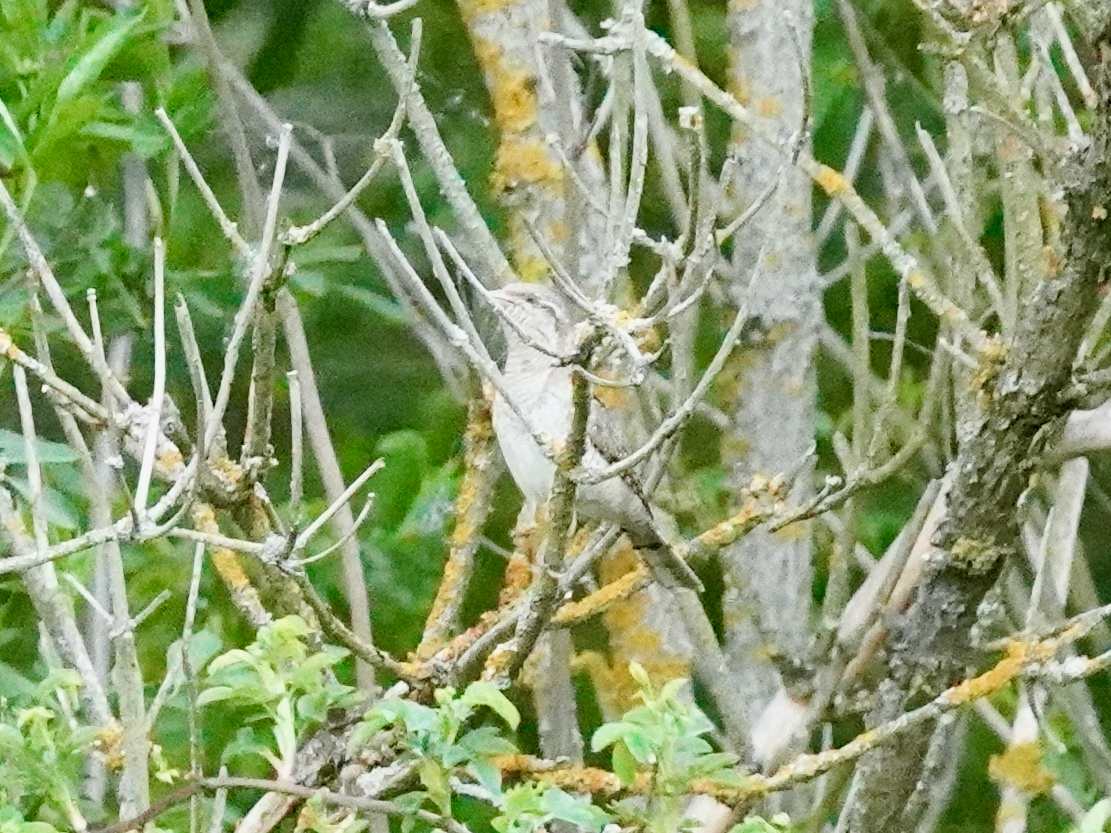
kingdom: Animalia
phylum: Chordata
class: Aves
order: Piciformes
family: Picidae
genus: Jynx
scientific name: Jynx torquilla
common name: Eurasian wryneck
